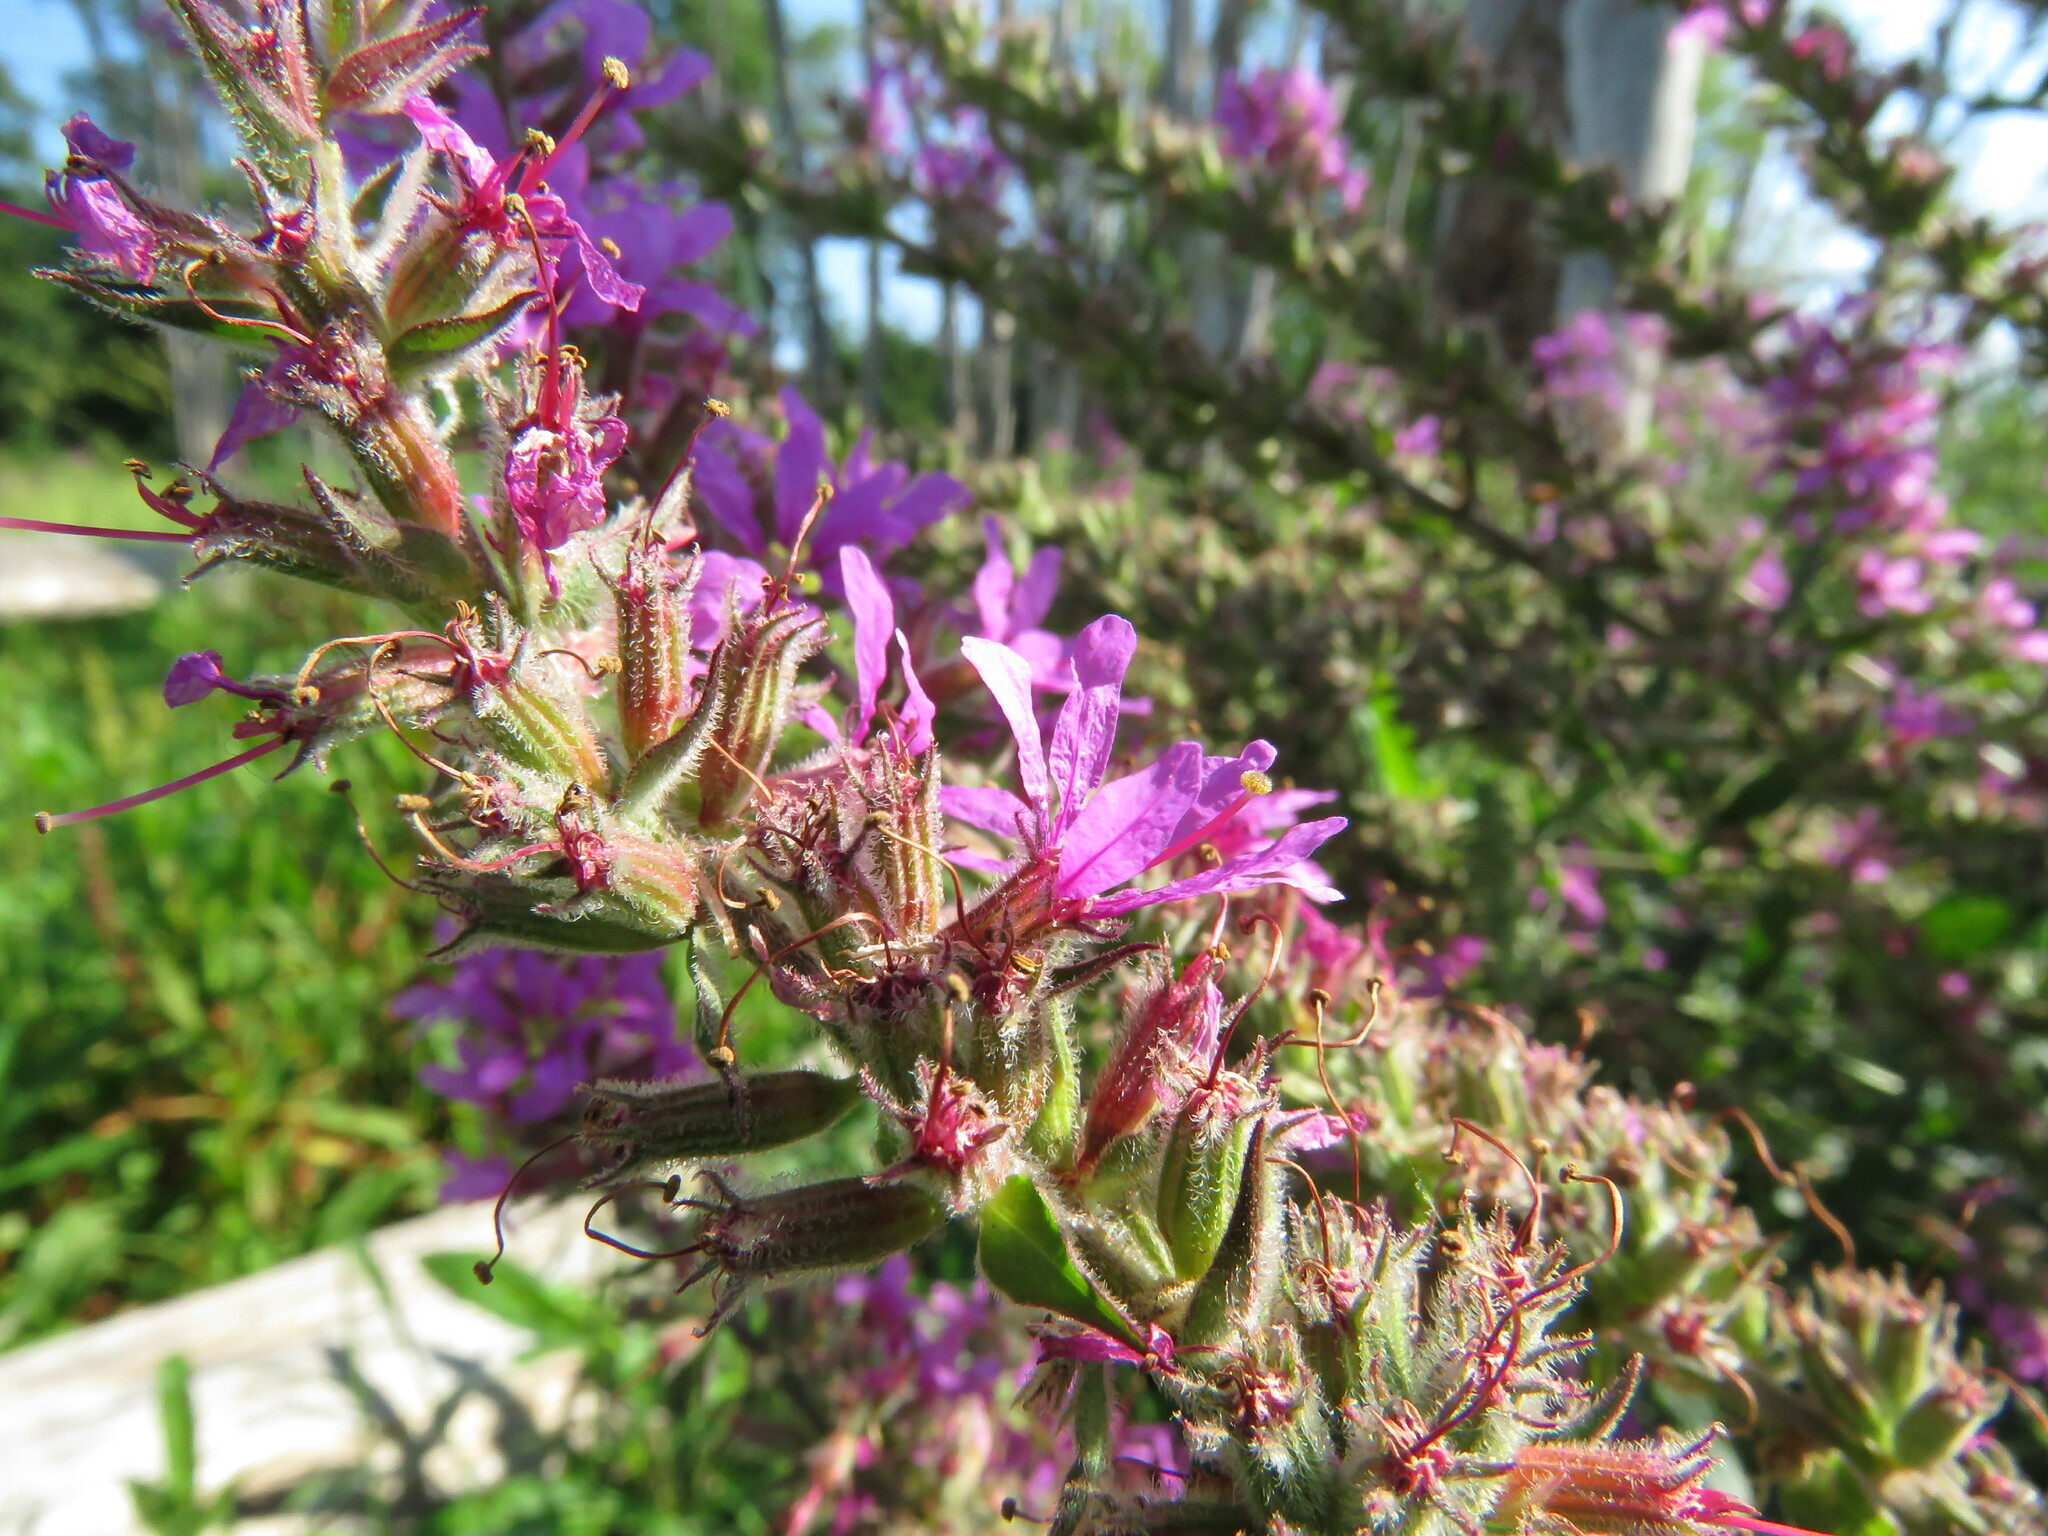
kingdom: Plantae
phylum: Tracheophyta
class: Magnoliopsida
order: Myrtales
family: Lythraceae
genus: Lythrum
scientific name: Lythrum salicaria
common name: Purple loosestrife
